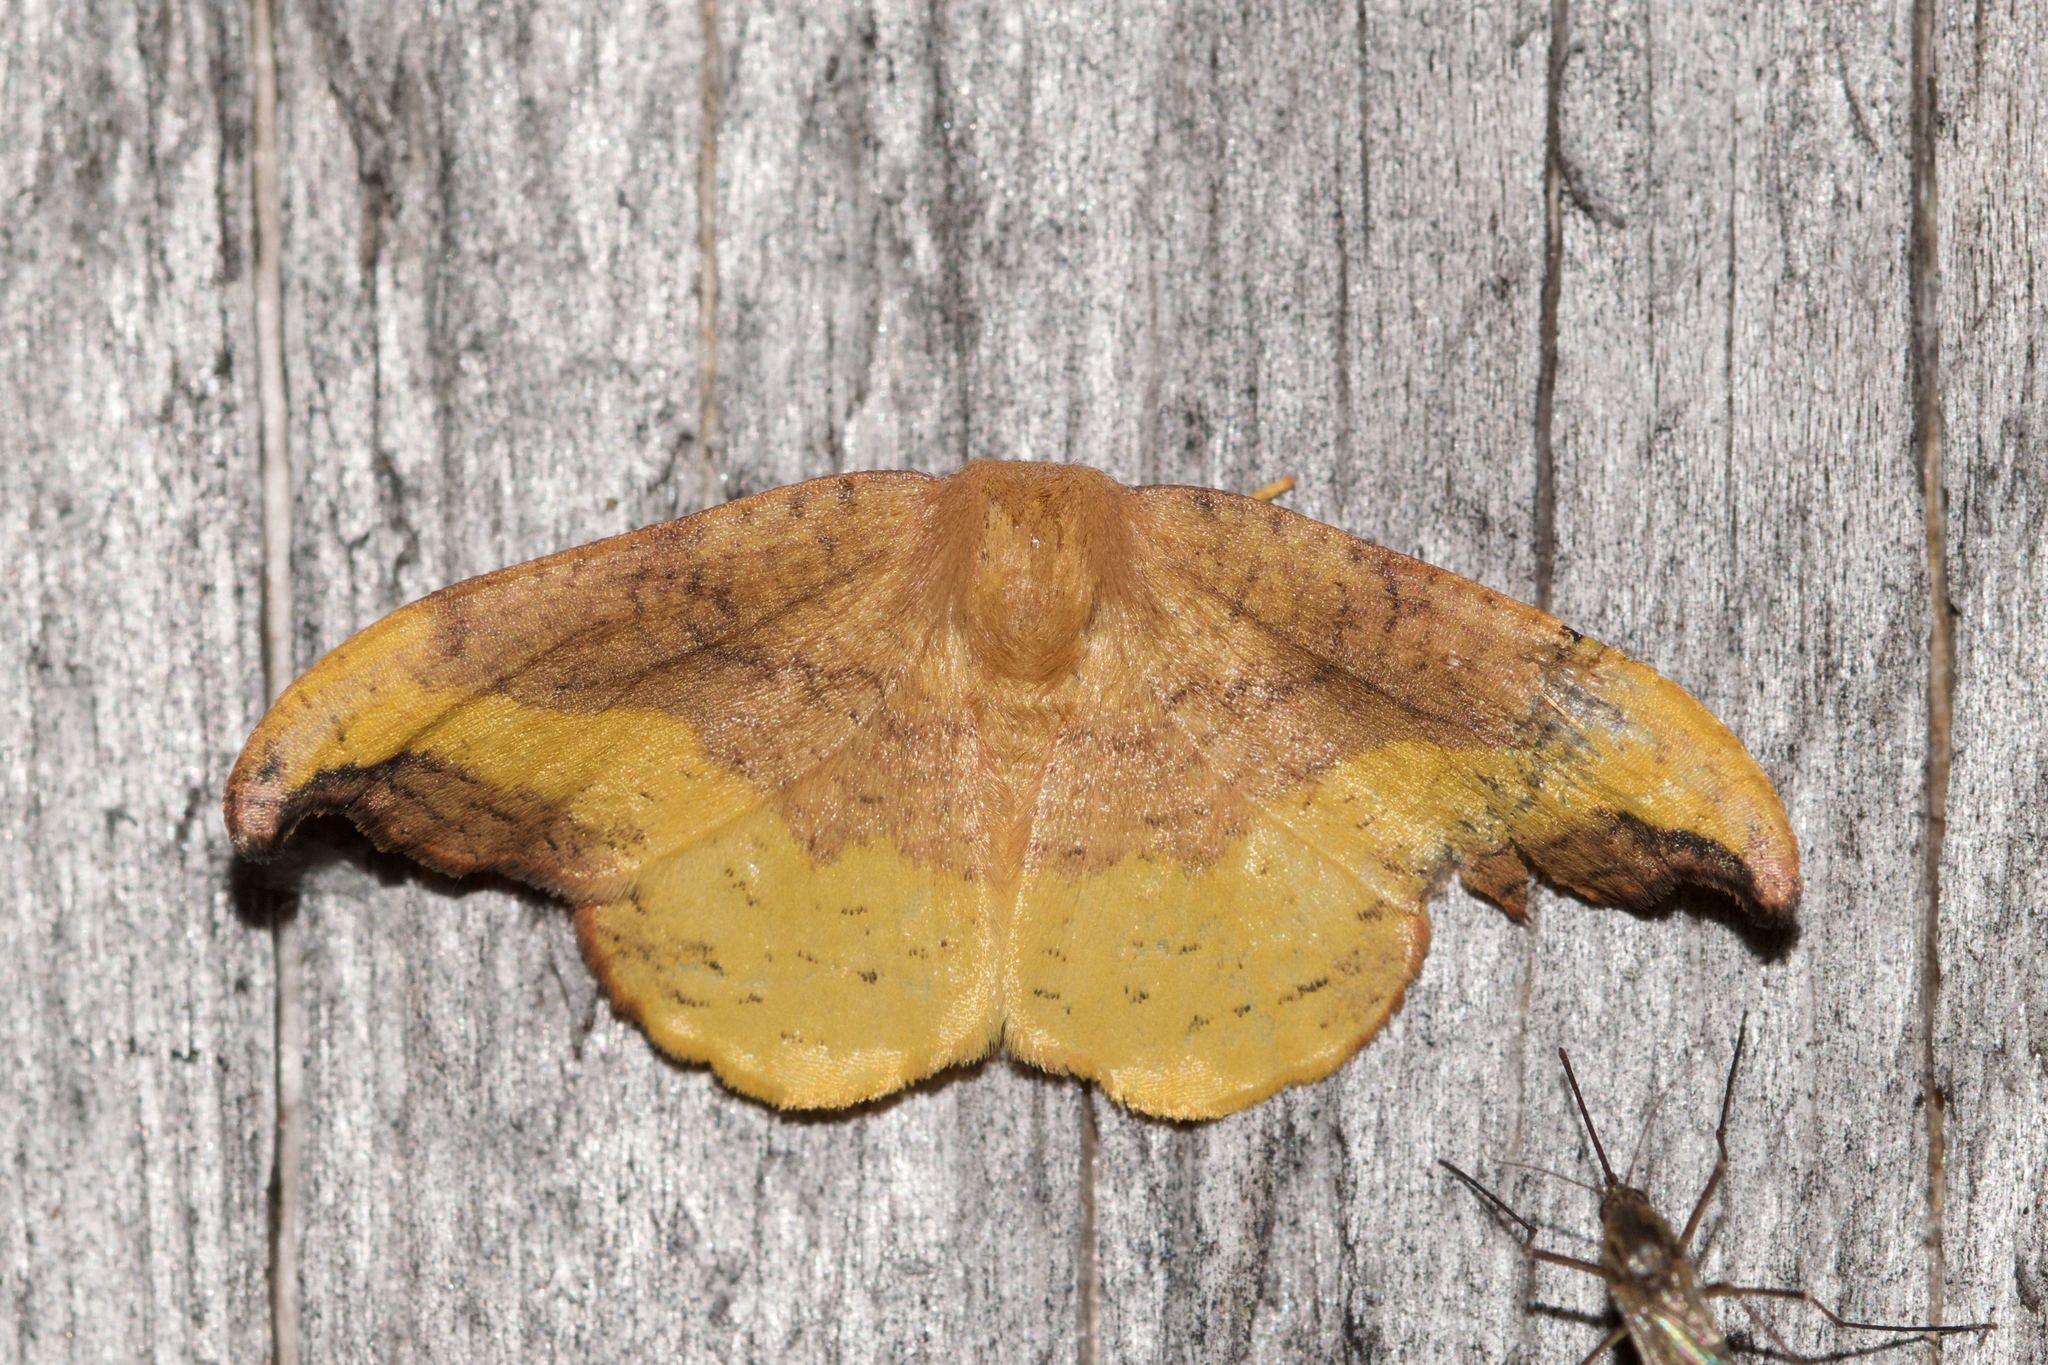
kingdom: Animalia
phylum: Arthropoda
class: Insecta
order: Lepidoptera
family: Drepanidae
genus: Oreta
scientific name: Oreta rosea
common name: Rose hooktip
